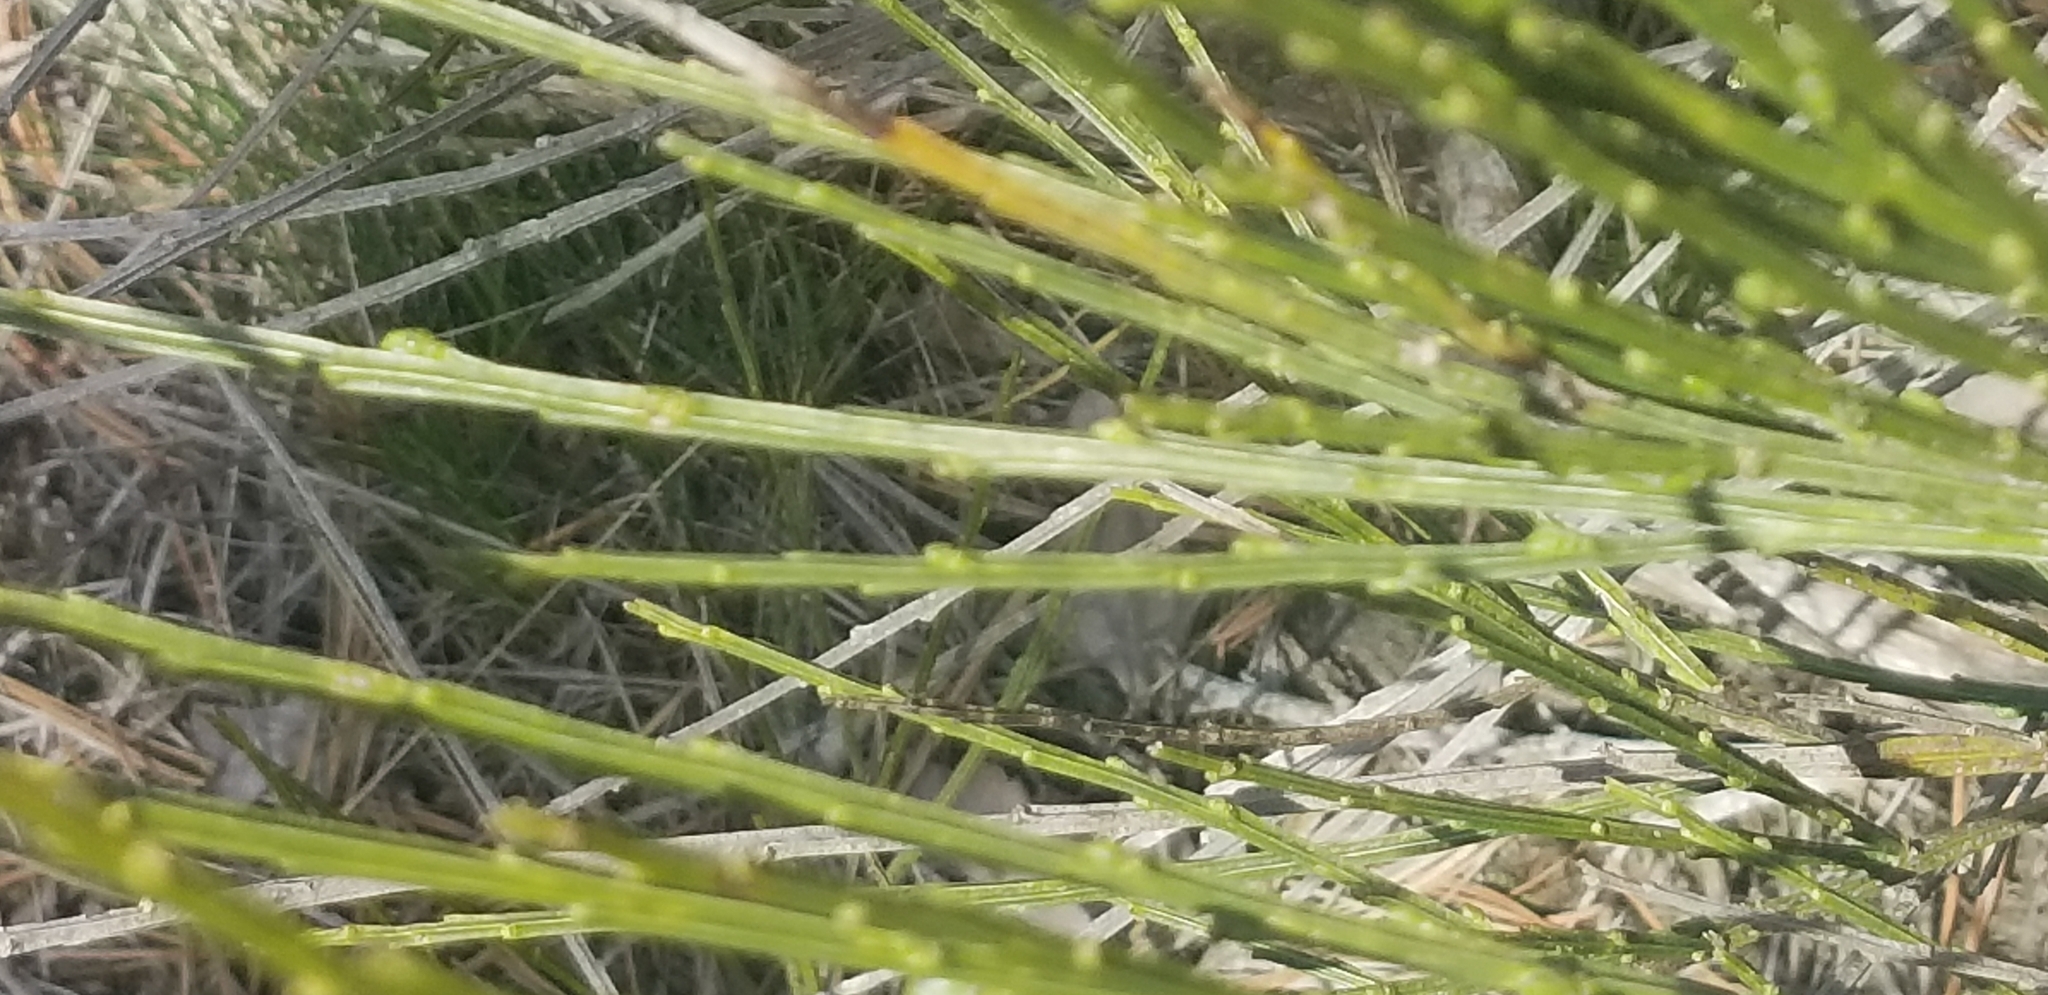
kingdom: Plantae
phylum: Tracheophyta
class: Magnoliopsida
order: Fabales
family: Fabaceae
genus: Cytisus
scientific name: Cytisus scoparius
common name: Scotch broom
